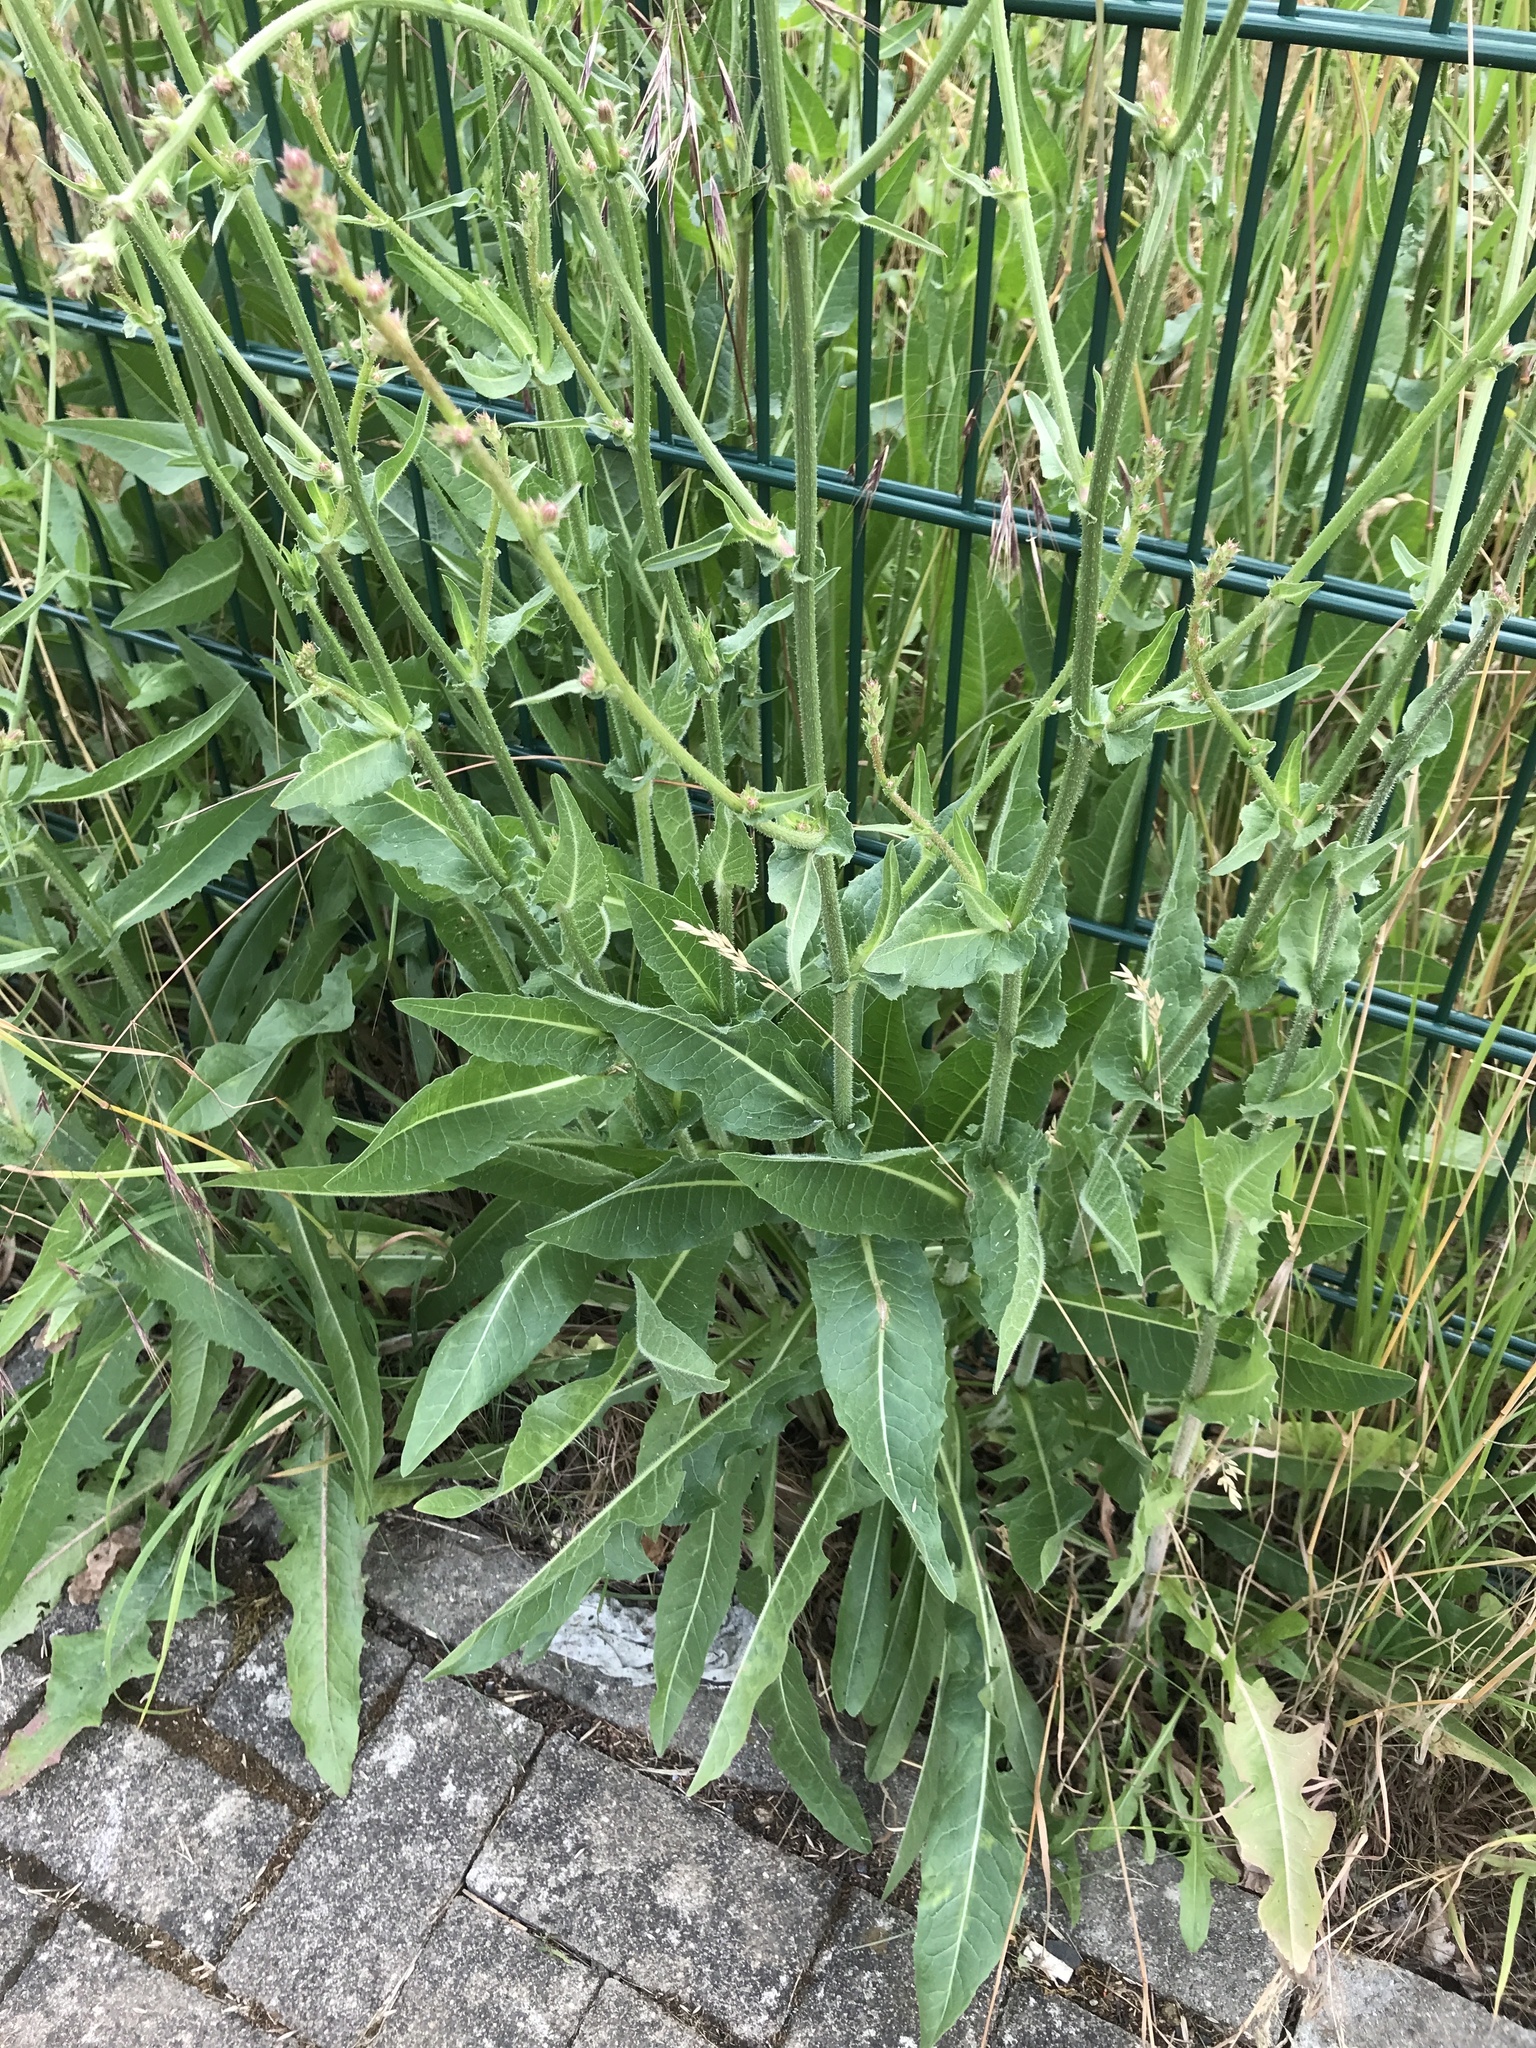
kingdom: Plantae
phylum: Tracheophyta
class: Magnoliopsida
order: Asterales
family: Asteraceae
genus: Cichorium
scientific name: Cichorium intybus
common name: Chicory
